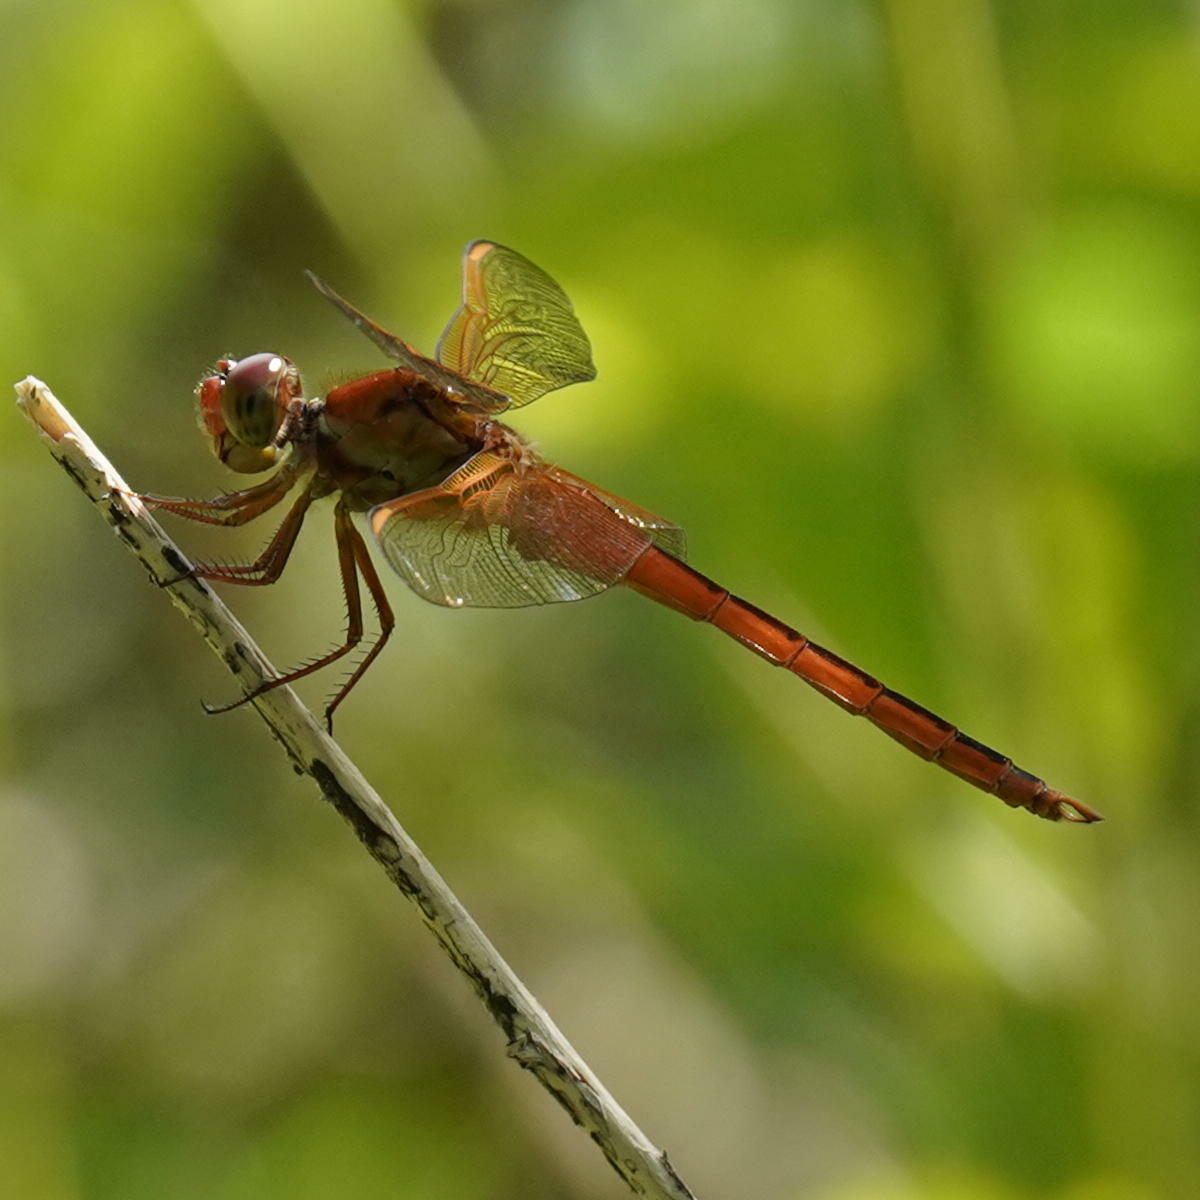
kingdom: Animalia
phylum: Arthropoda
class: Insecta
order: Odonata
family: Libellulidae
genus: Libellula
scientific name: Libellula needhami
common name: Needham's skimmer
